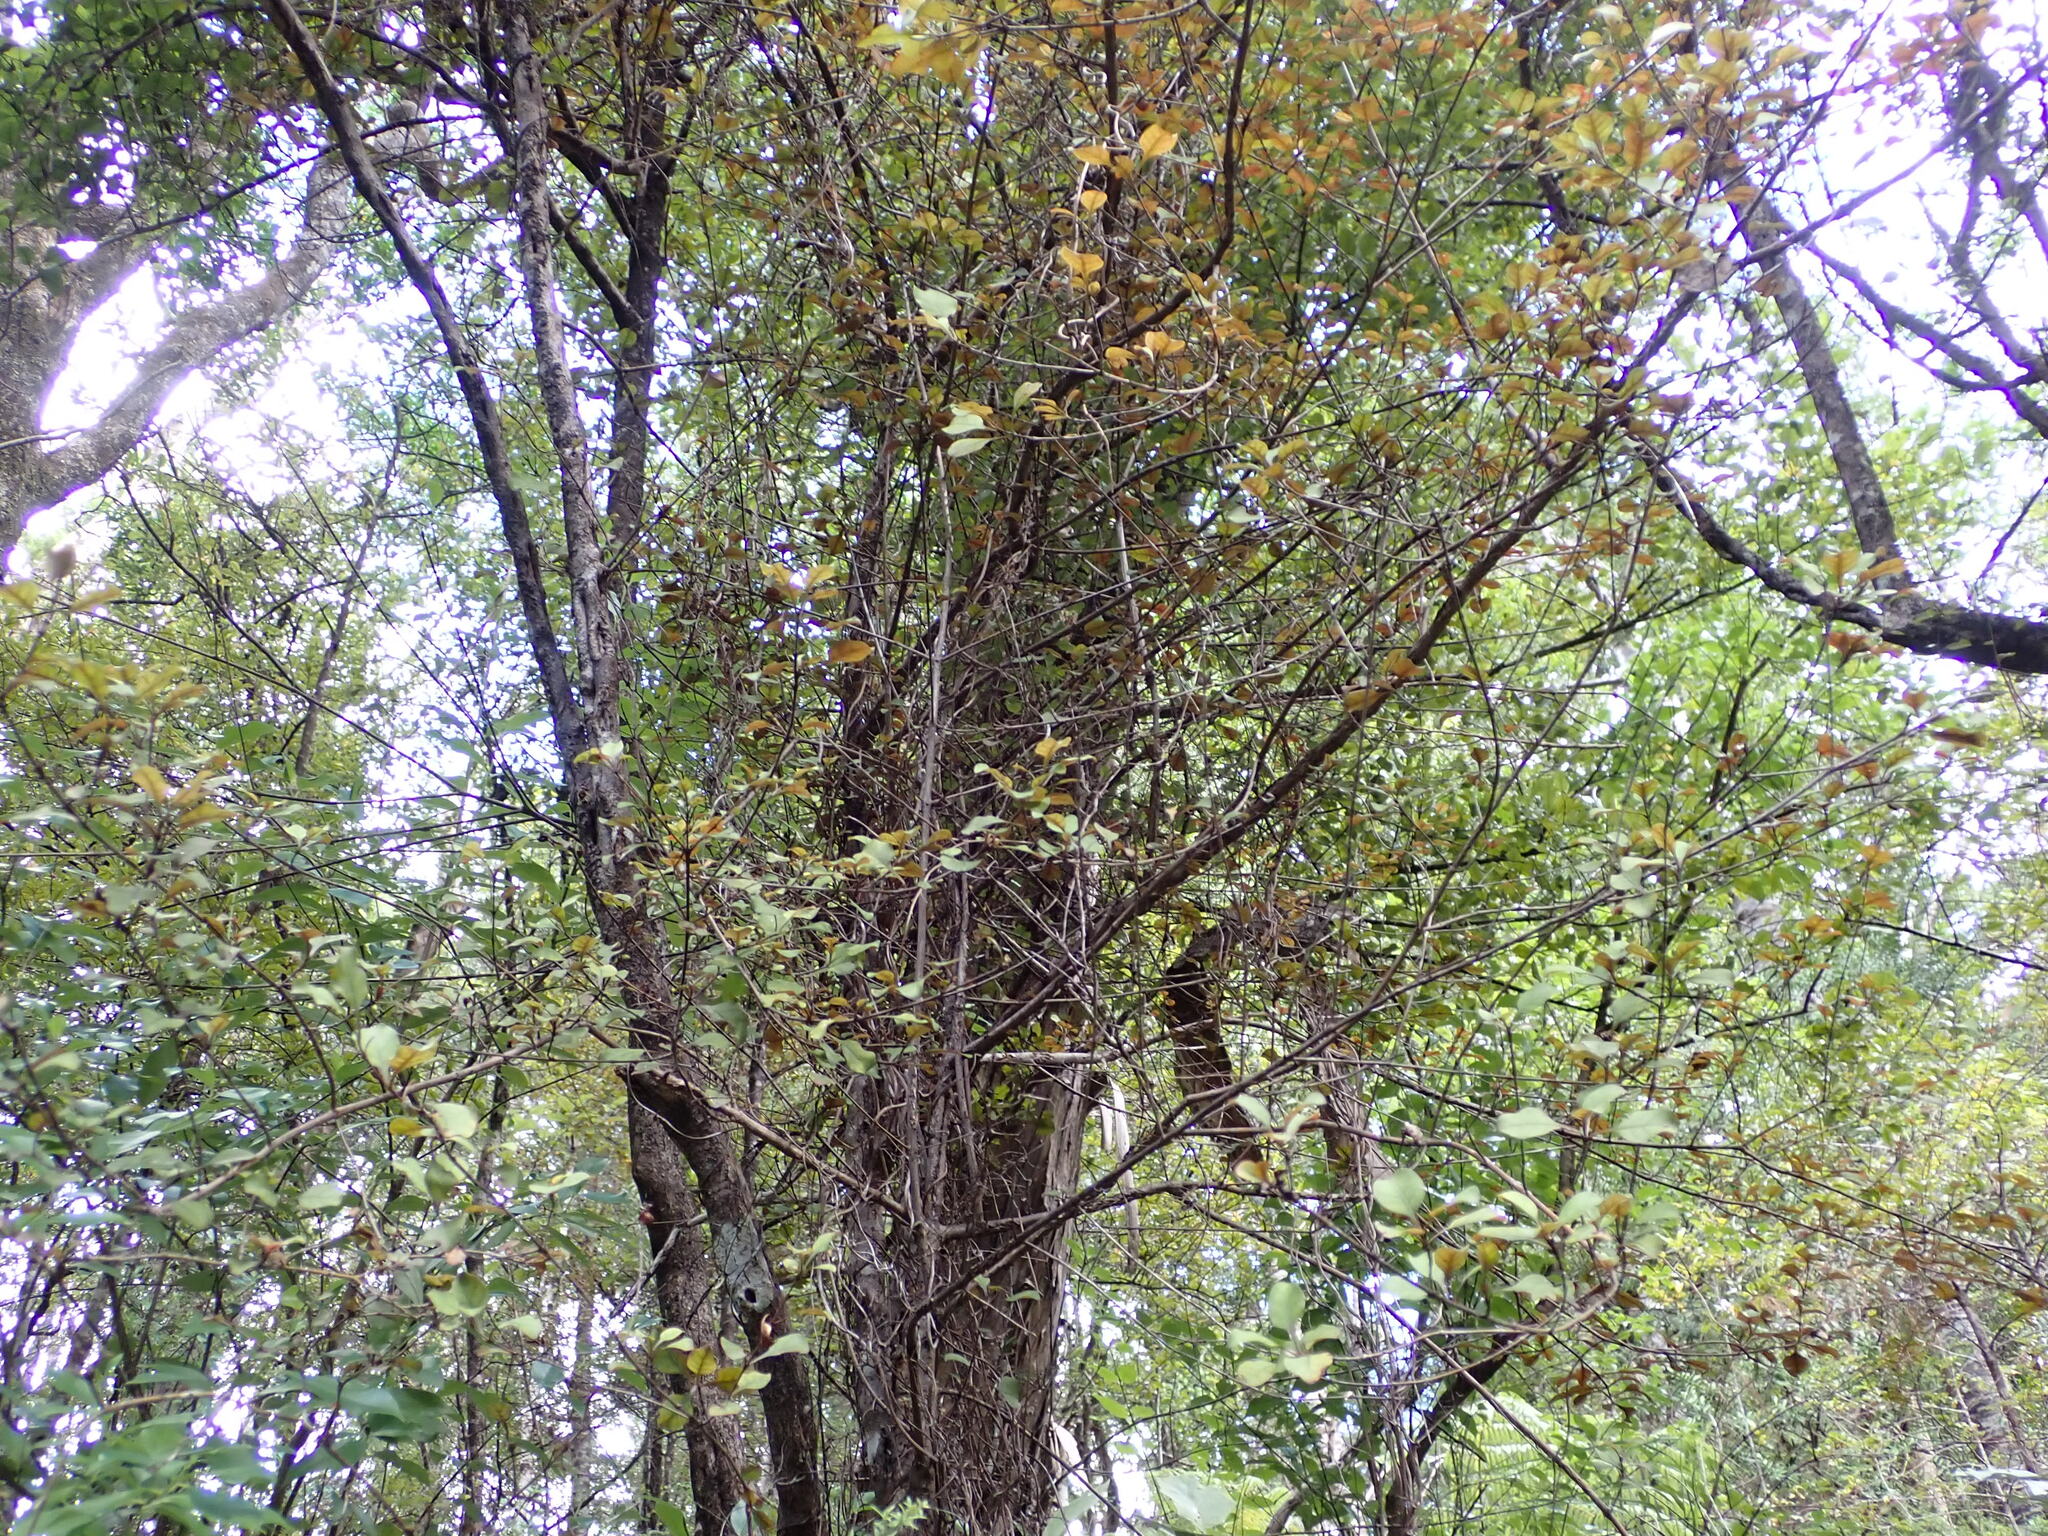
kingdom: Plantae
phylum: Tracheophyta
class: Magnoliopsida
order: Gentianales
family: Rubiaceae
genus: Coprosma
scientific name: Coprosma arborea
